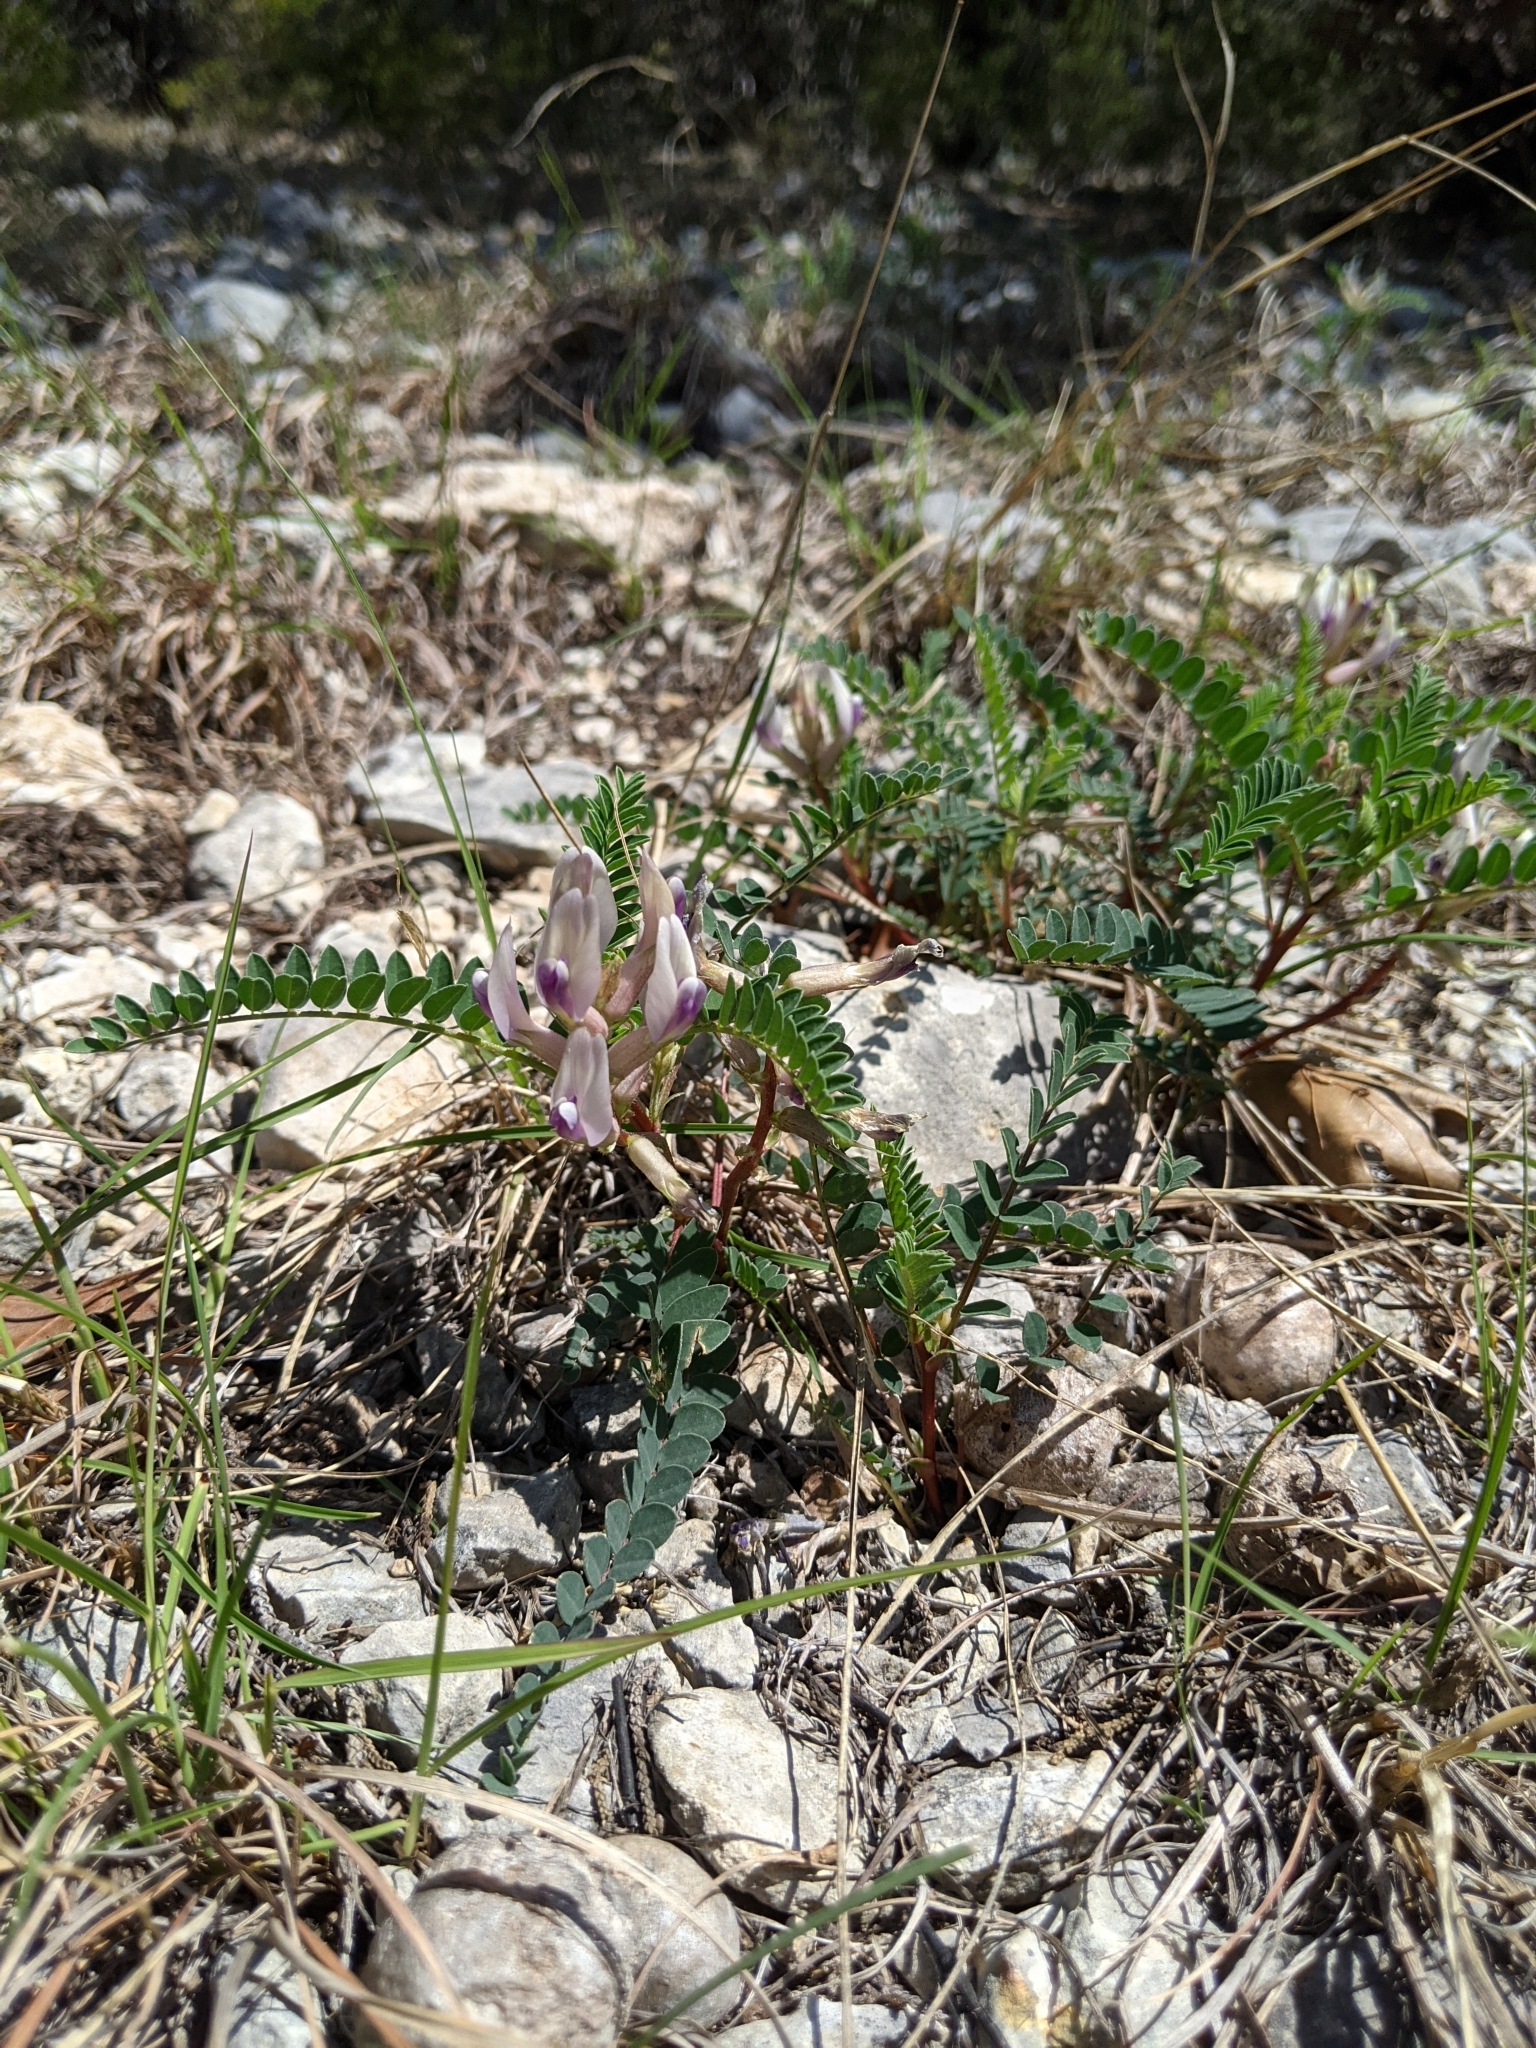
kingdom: Plantae
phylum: Tracheophyta
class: Magnoliopsida
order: Fabales
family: Fabaceae
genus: Astragalus
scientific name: Astragalus crassicarpus
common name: Ground-plum milk-vetch
